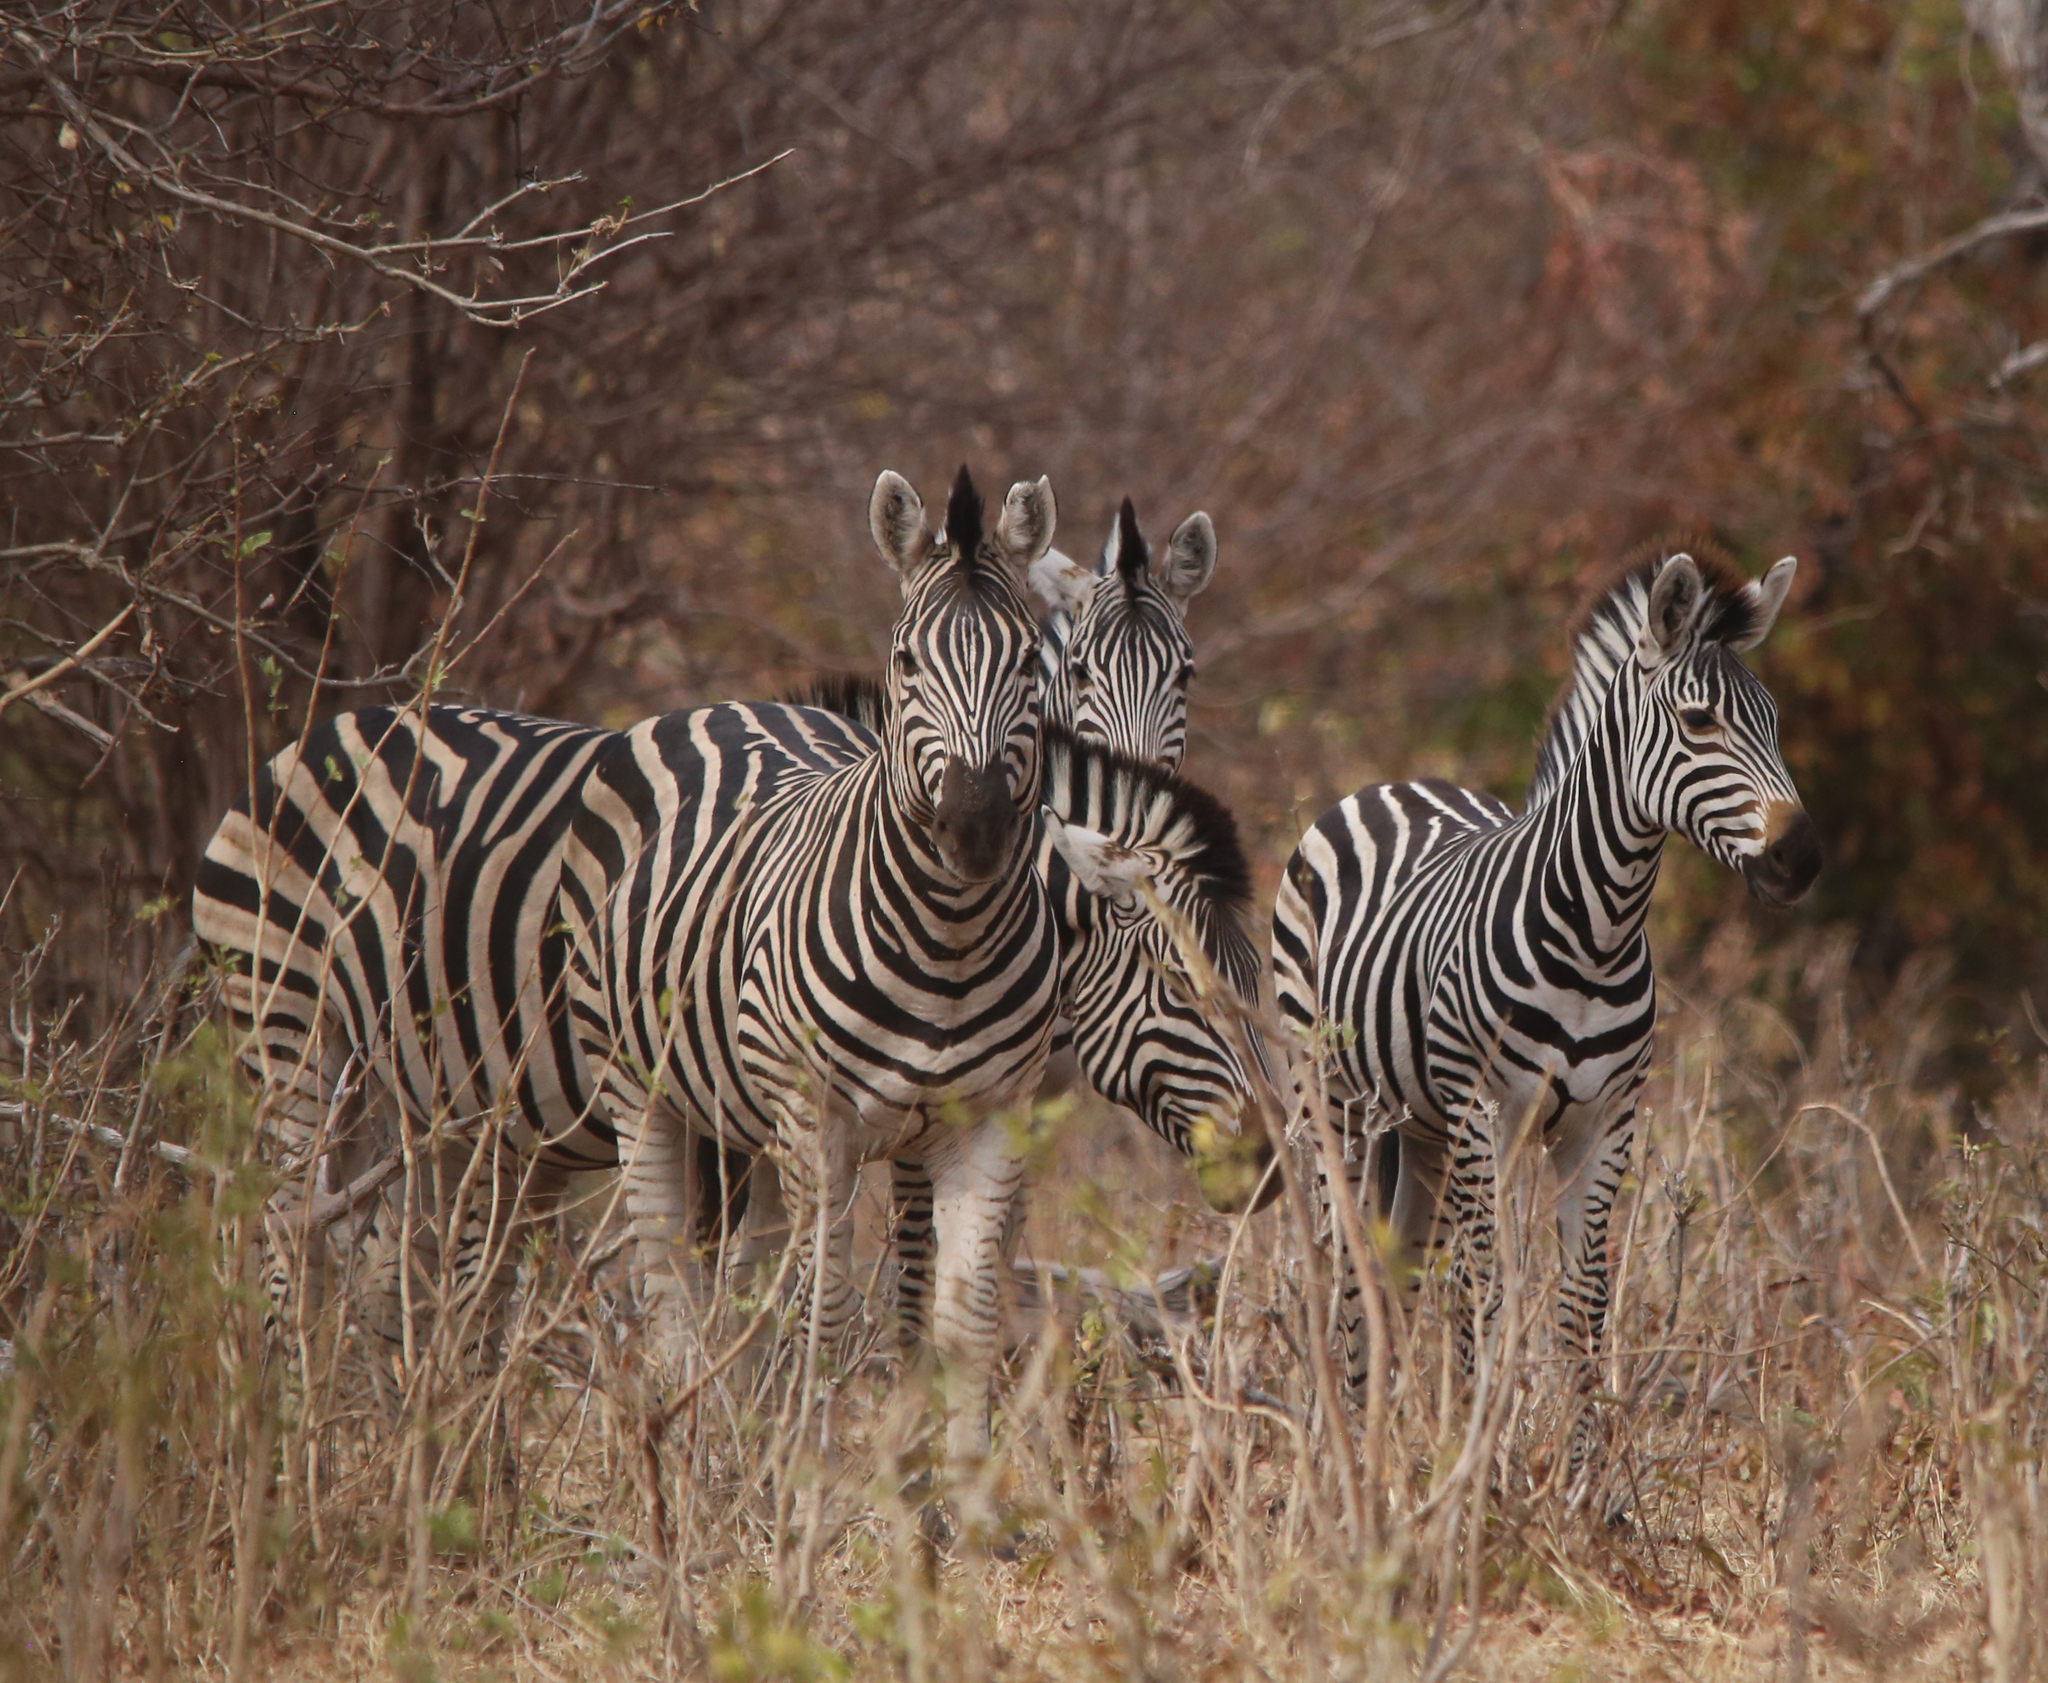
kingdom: Animalia
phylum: Chordata
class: Mammalia
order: Perissodactyla
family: Equidae
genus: Equus
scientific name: Equus quagga
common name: Plains zebra
